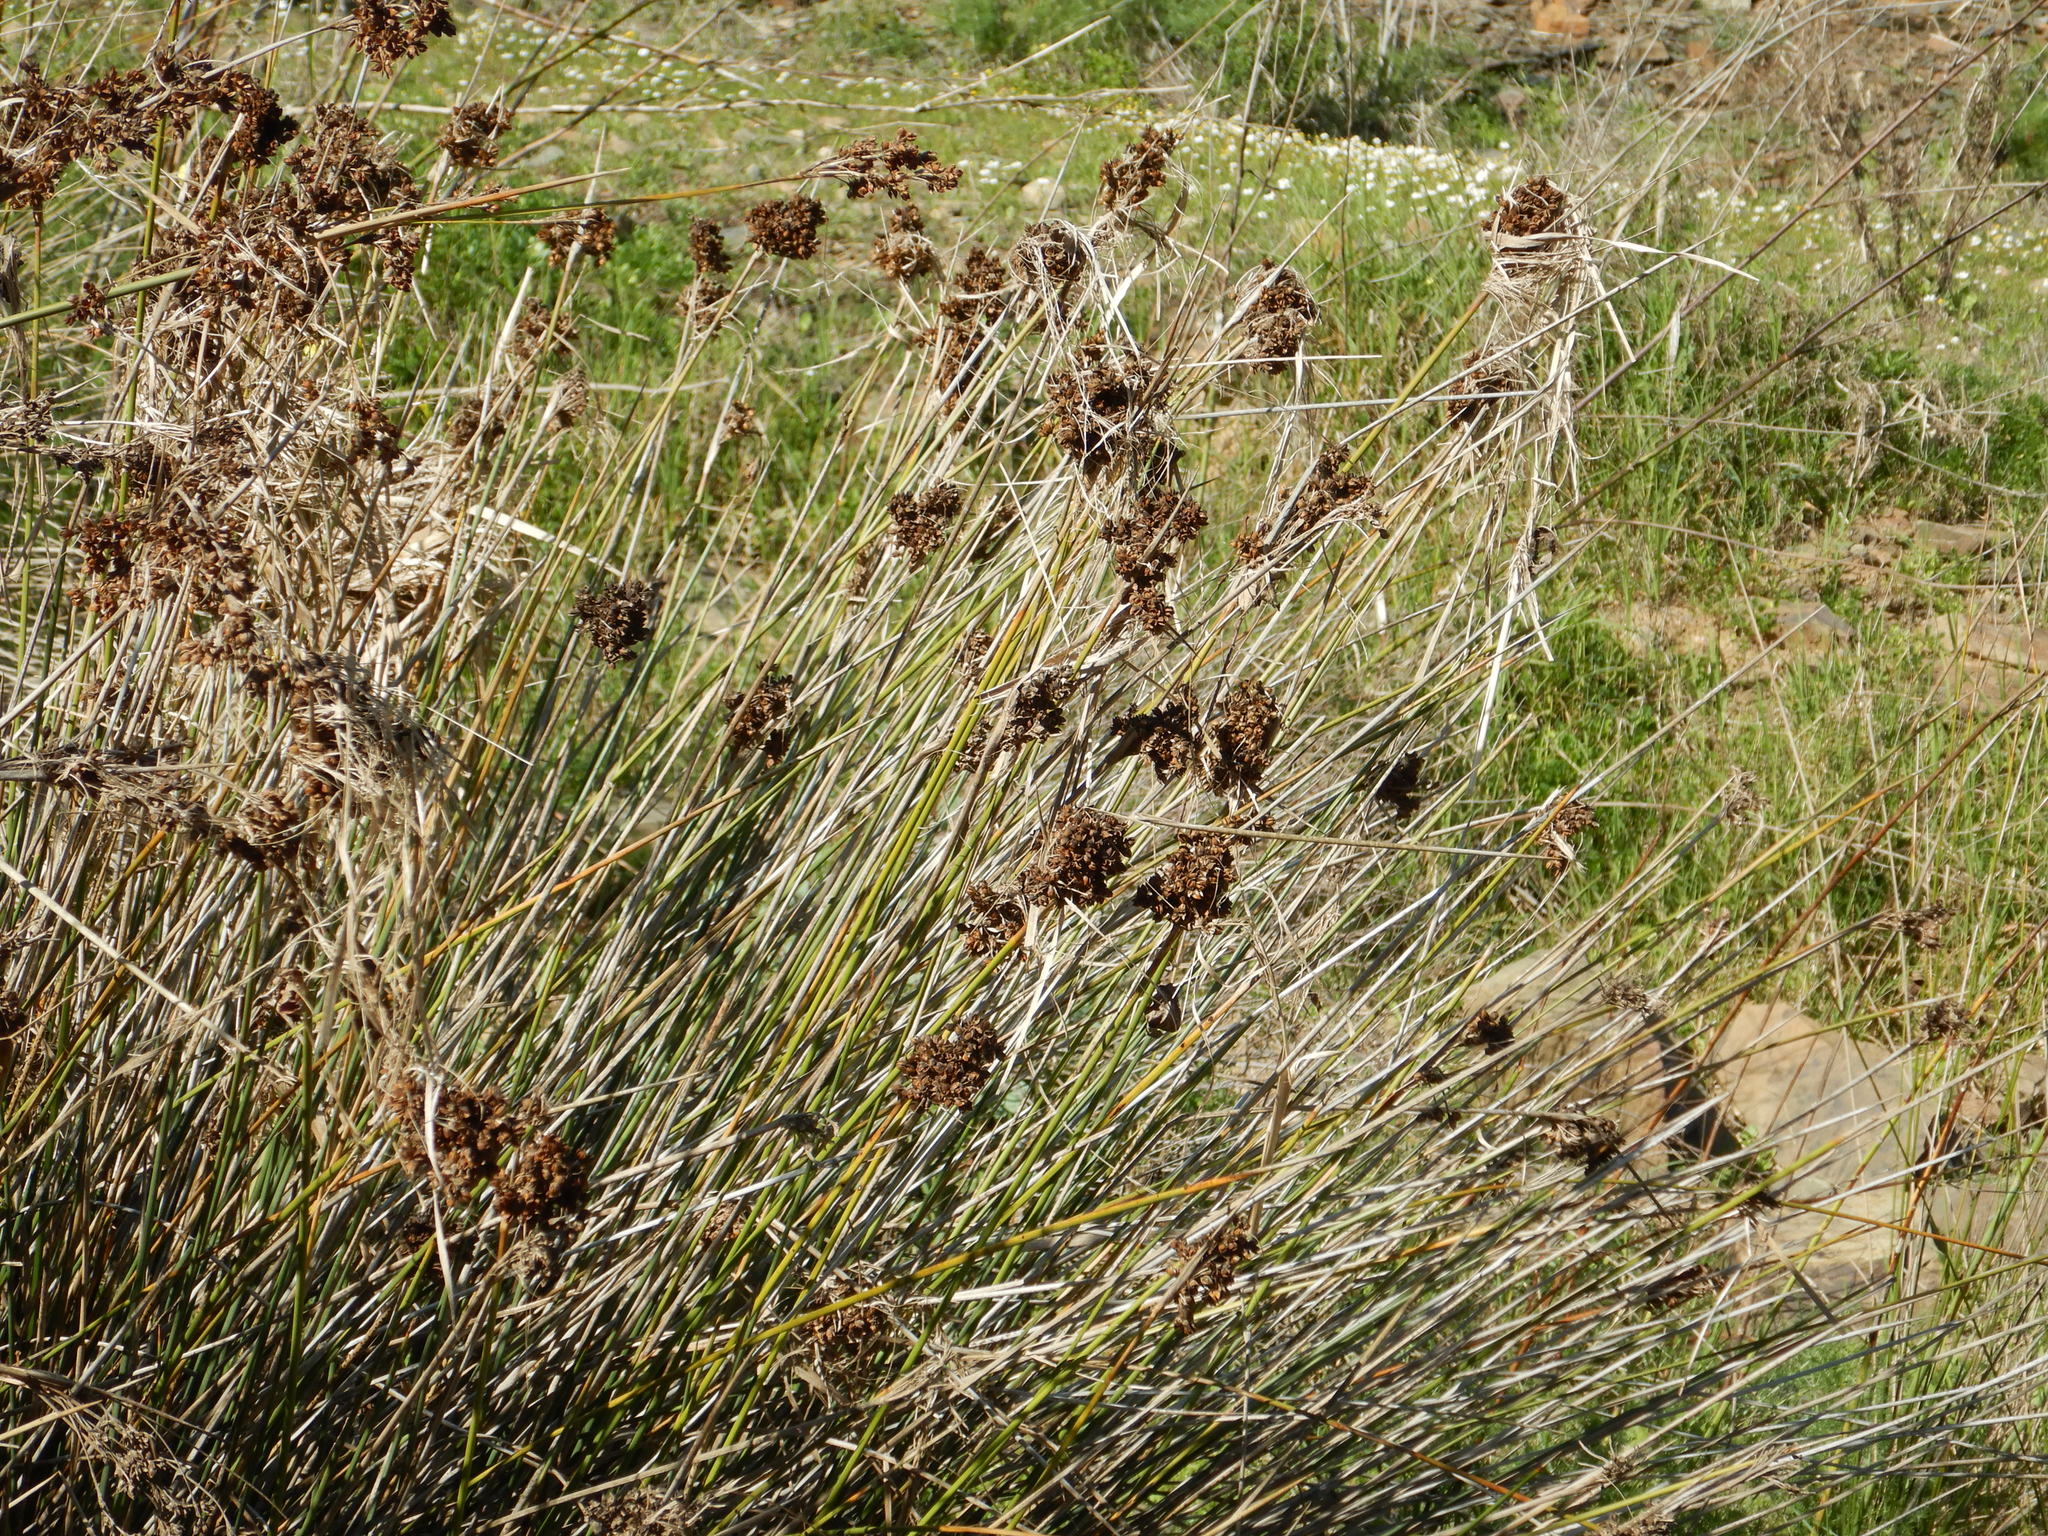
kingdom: Plantae
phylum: Tracheophyta
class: Liliopsida
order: Poales
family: Juncaceae
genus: Juncus
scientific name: Juncus acutus
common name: Sharp rush
